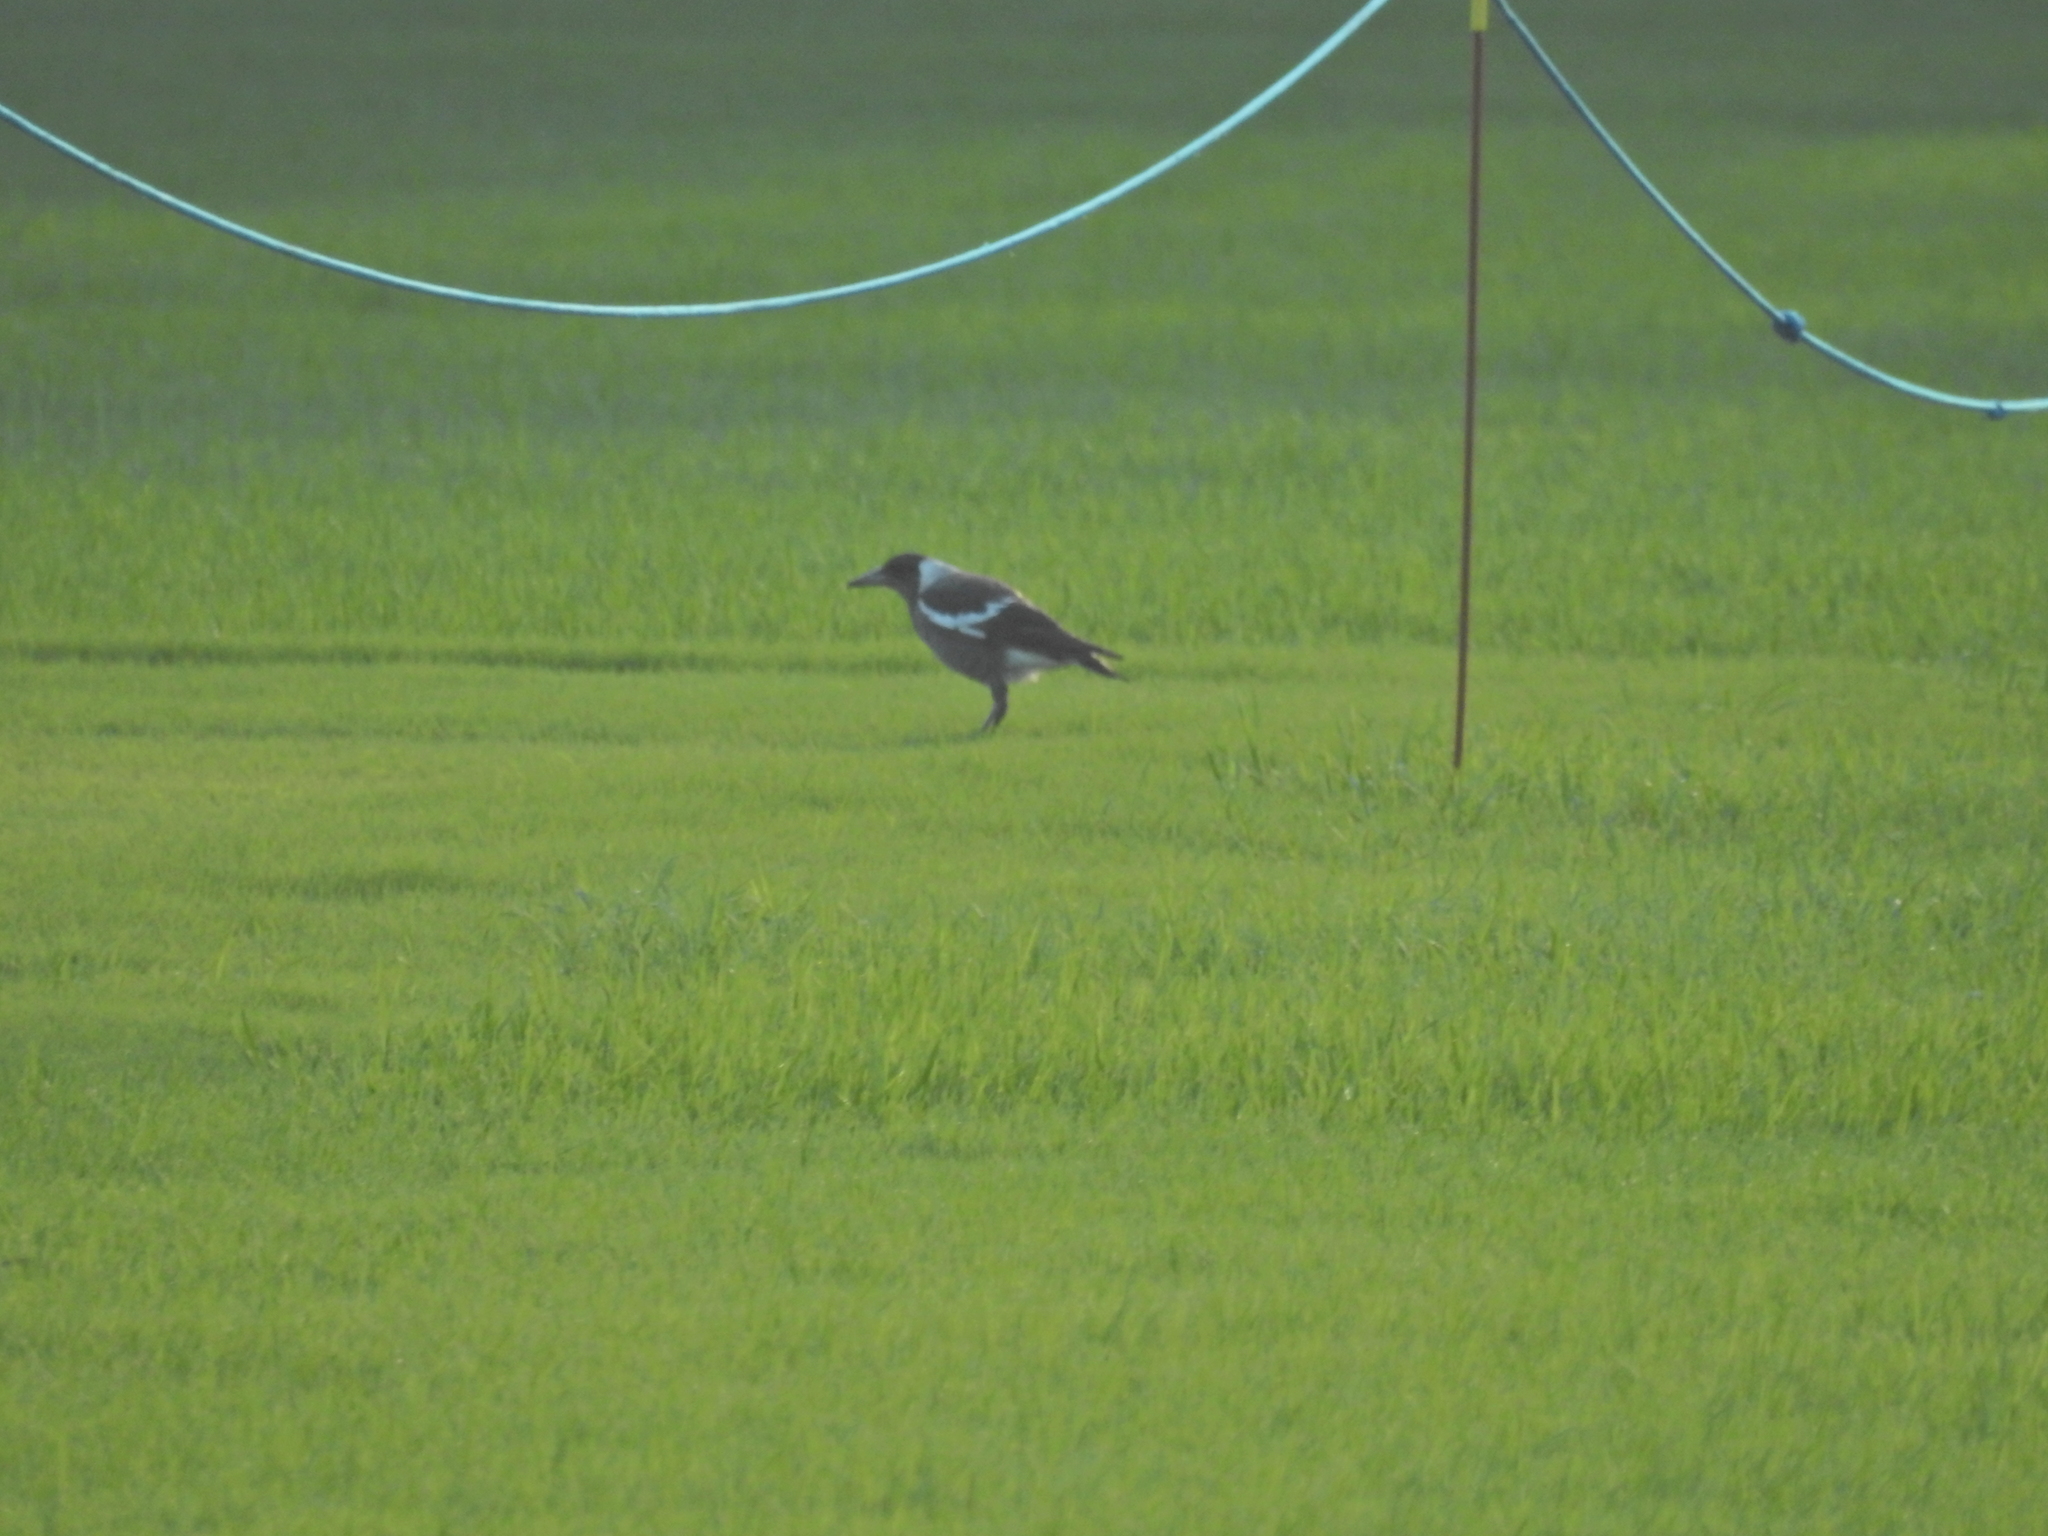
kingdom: Animalia
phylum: Chordata
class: Aves
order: Passeriformes
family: Cracticidae
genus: Gymnorhina
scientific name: Gymnorhina tibicen
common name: Australian magpie
